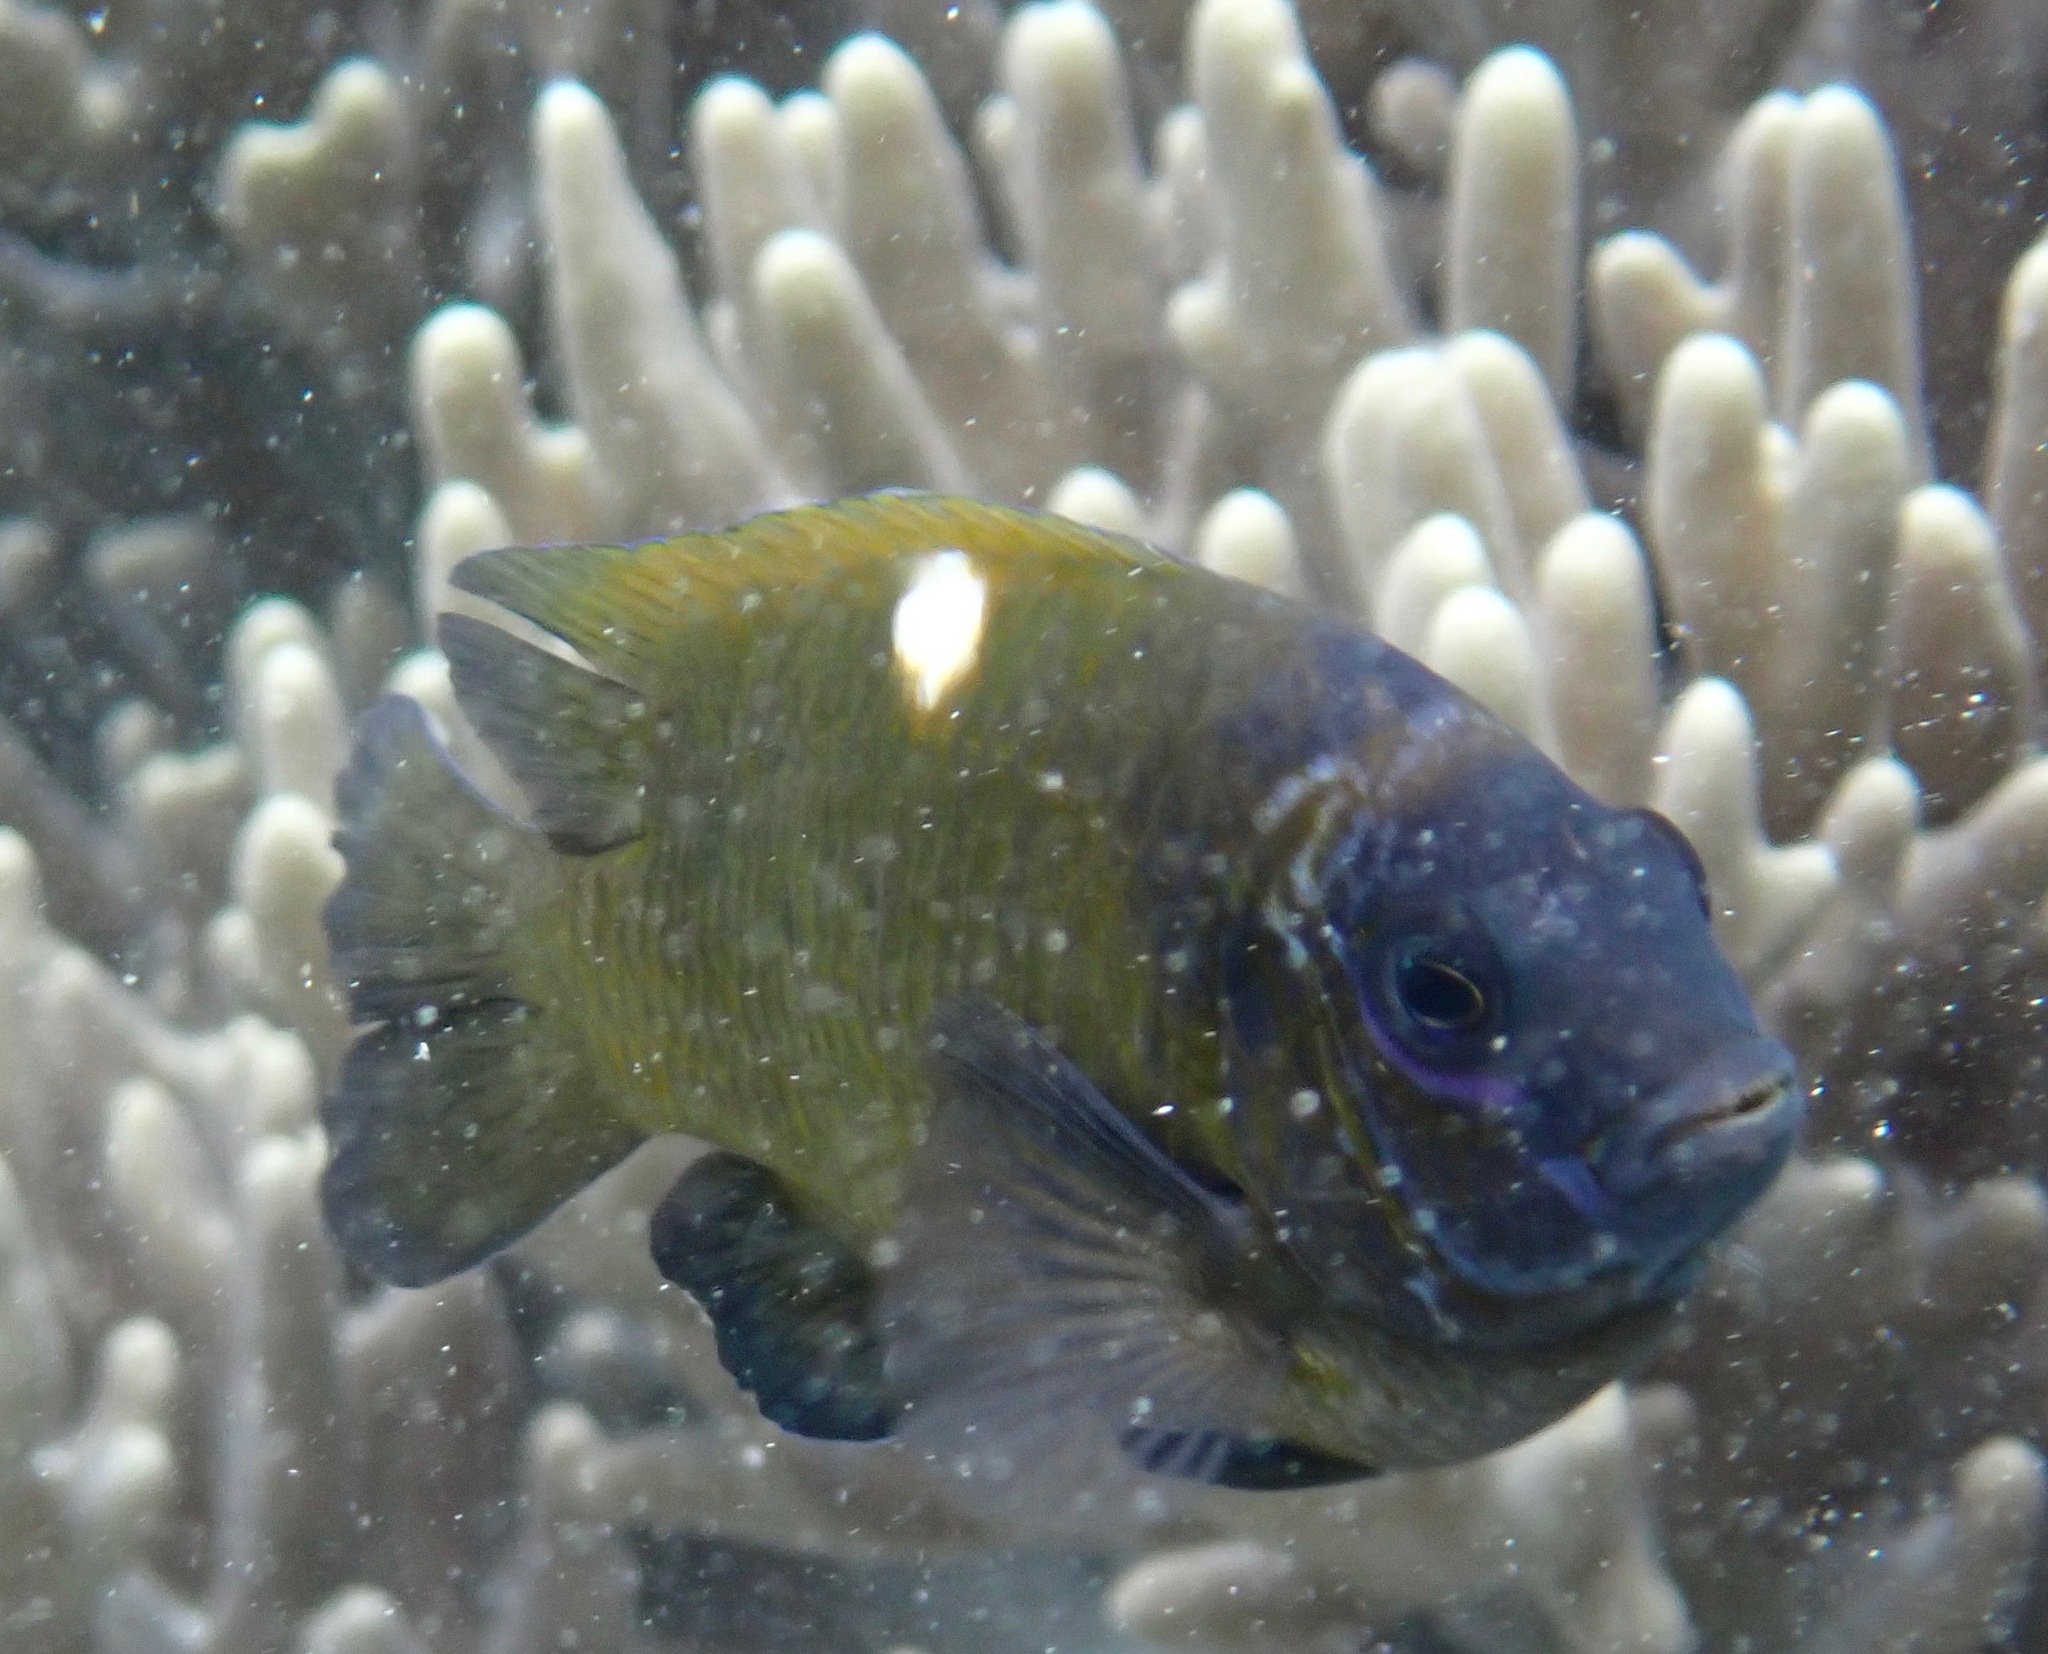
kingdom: Animalia
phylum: Chordata
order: Perciformes
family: Pomacentridae
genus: Dischistodus
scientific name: Dischistodus chrysopoecilus
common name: White-spot damsel
